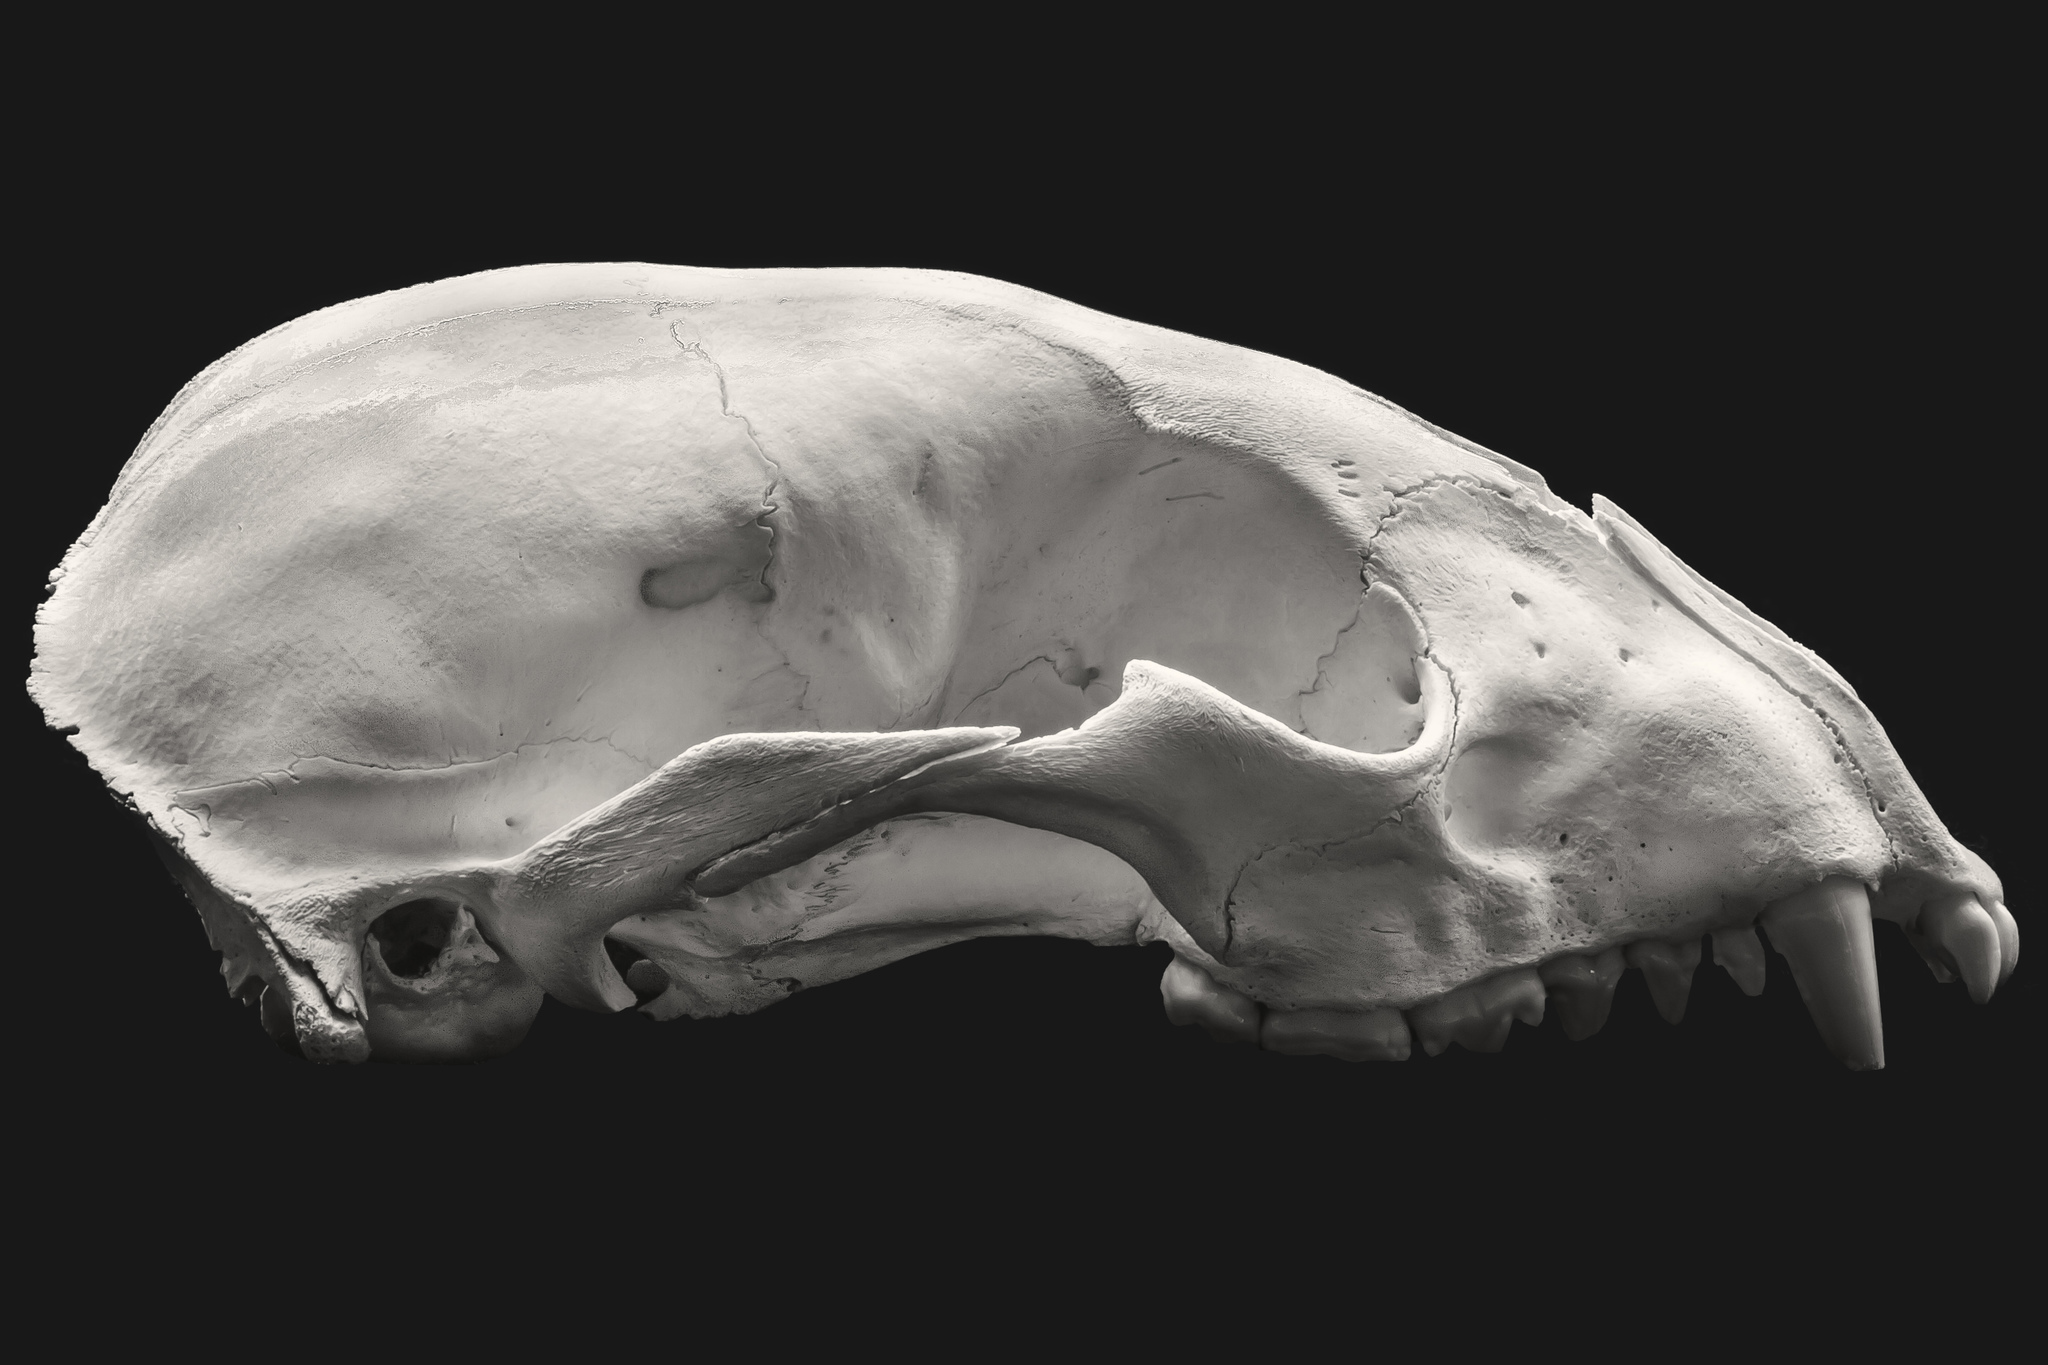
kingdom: Animalia
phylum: Chordata
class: Mammalia
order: Carnivora
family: Procyonidae
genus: Procyon
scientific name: Procyon lotor
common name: Raccoon
